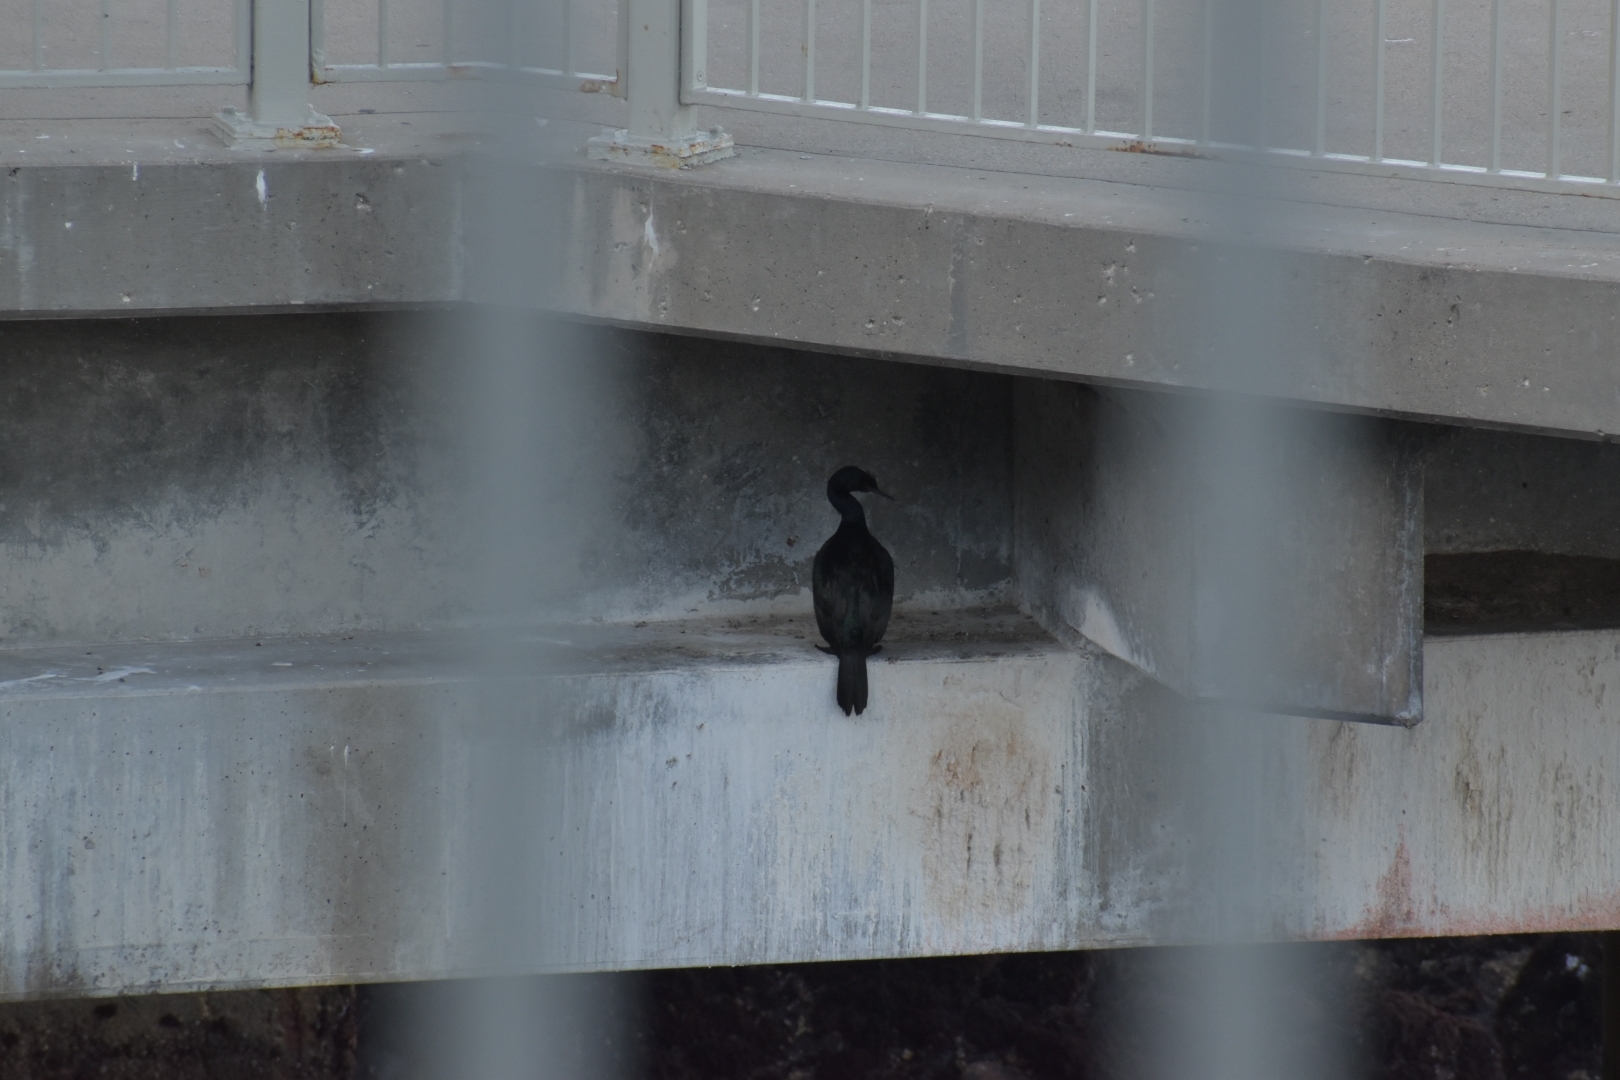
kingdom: Animalia
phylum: Chordata
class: Aves
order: Suliformes
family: Phalacrocoracidae
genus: Phalacrocorax
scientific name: Phalacrocorax pelagicus
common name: Pelagic cormorant
